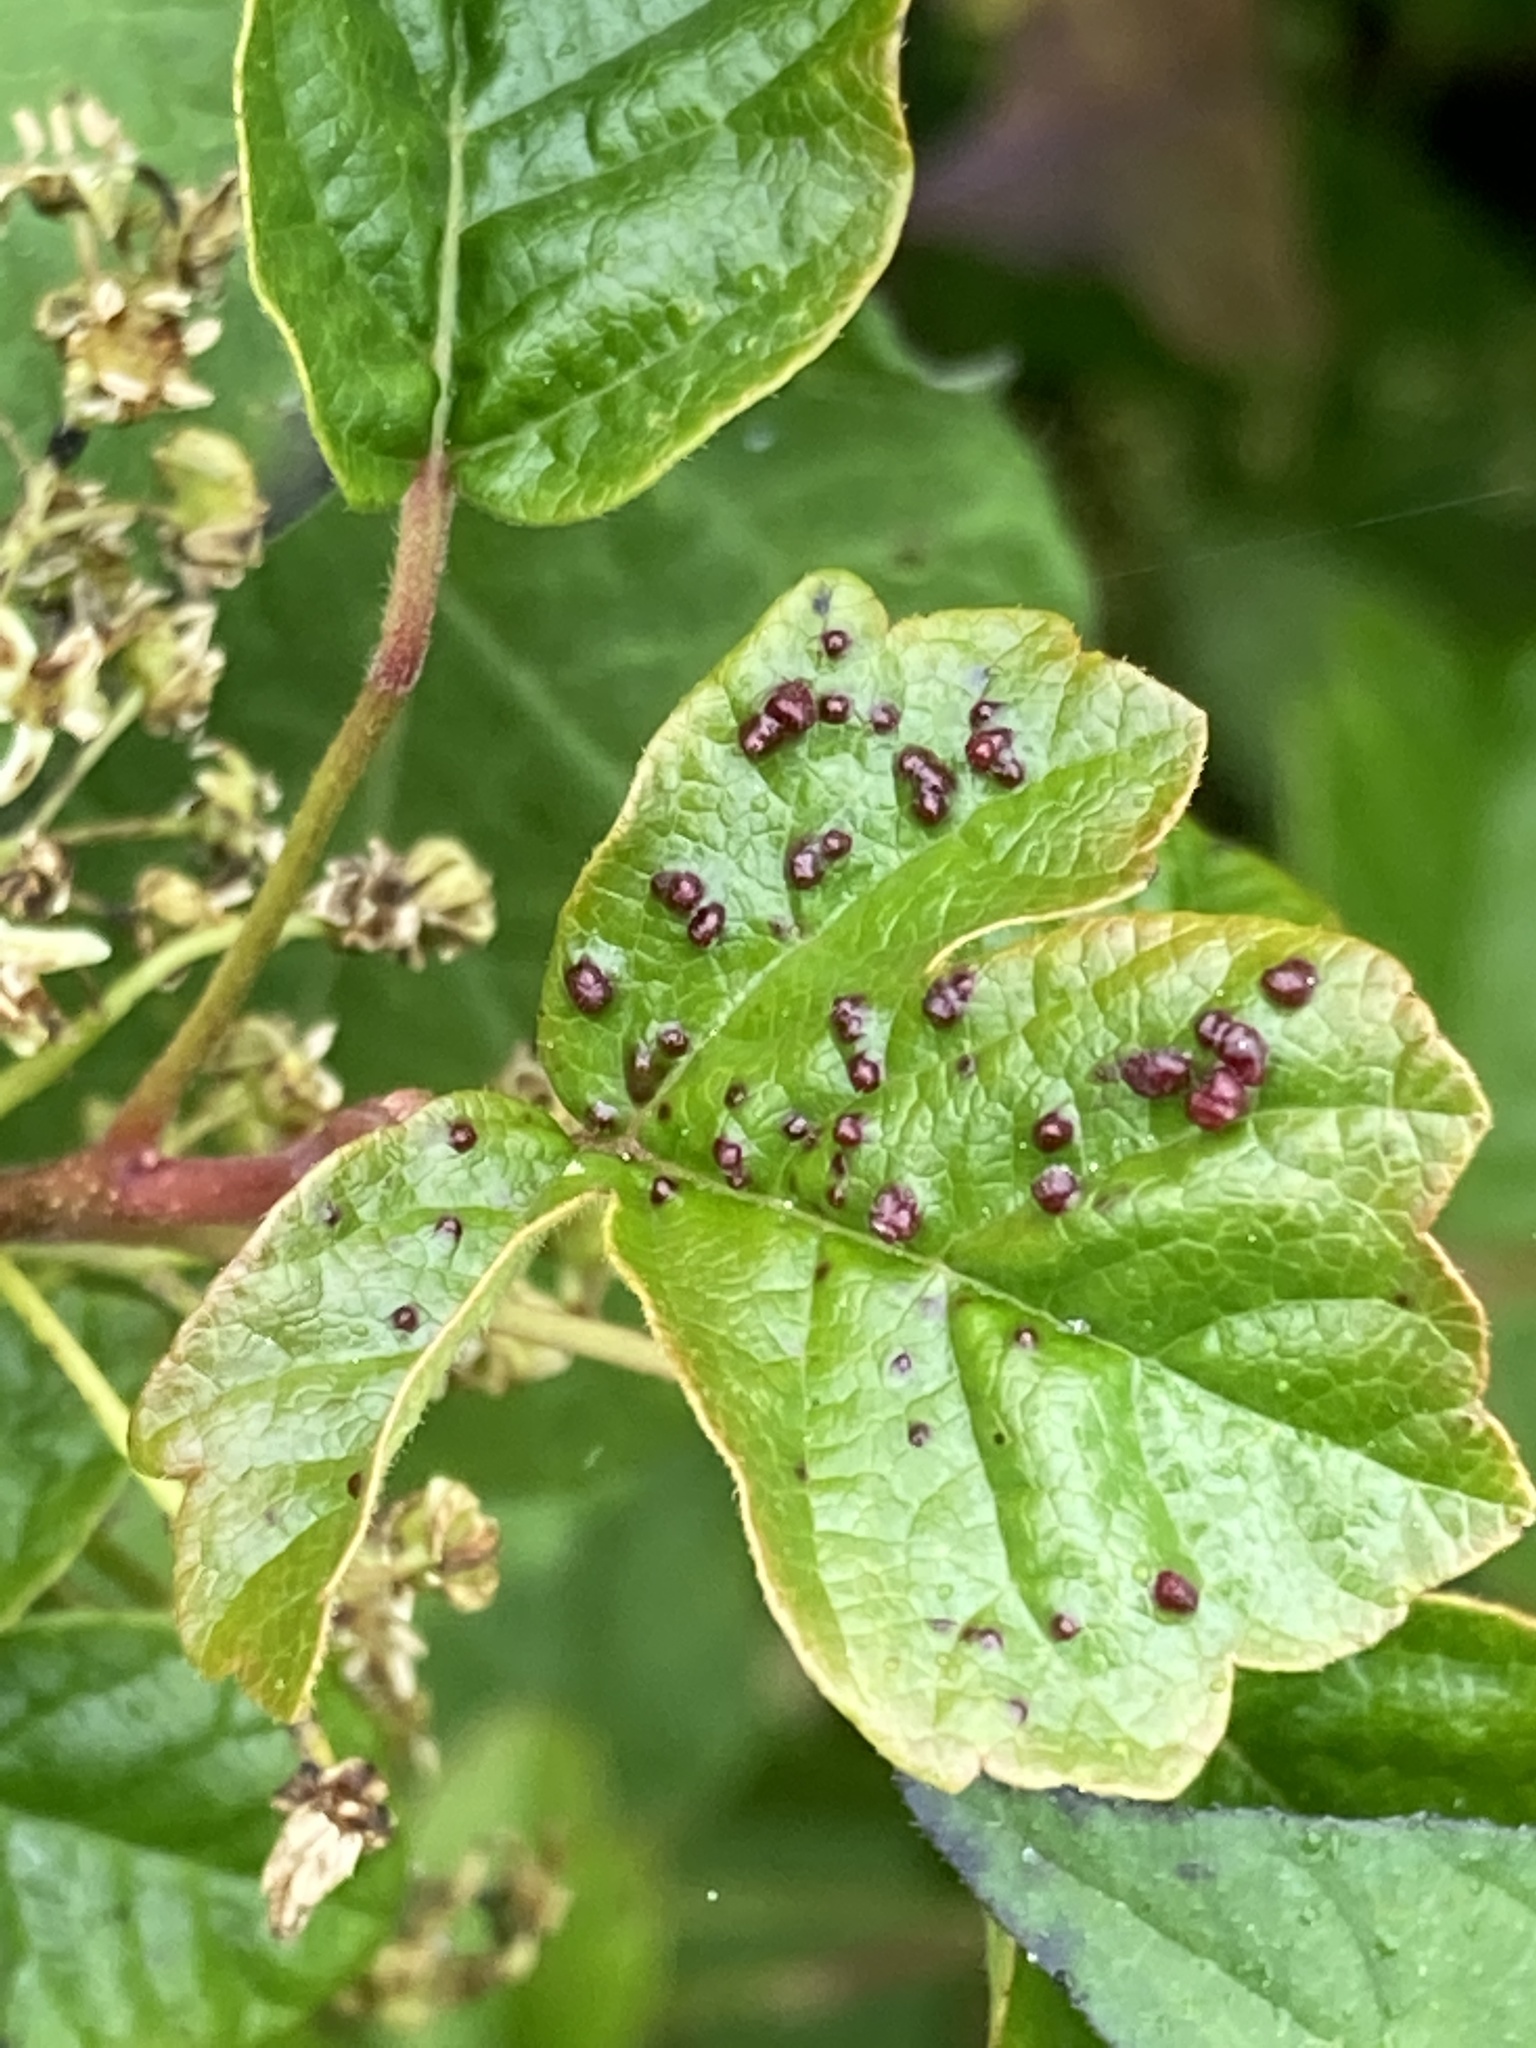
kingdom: Animalia
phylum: Arthropoda
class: Arachnida
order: Trombidiformes
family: Eriophyidae
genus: Aculops
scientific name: Aculops
